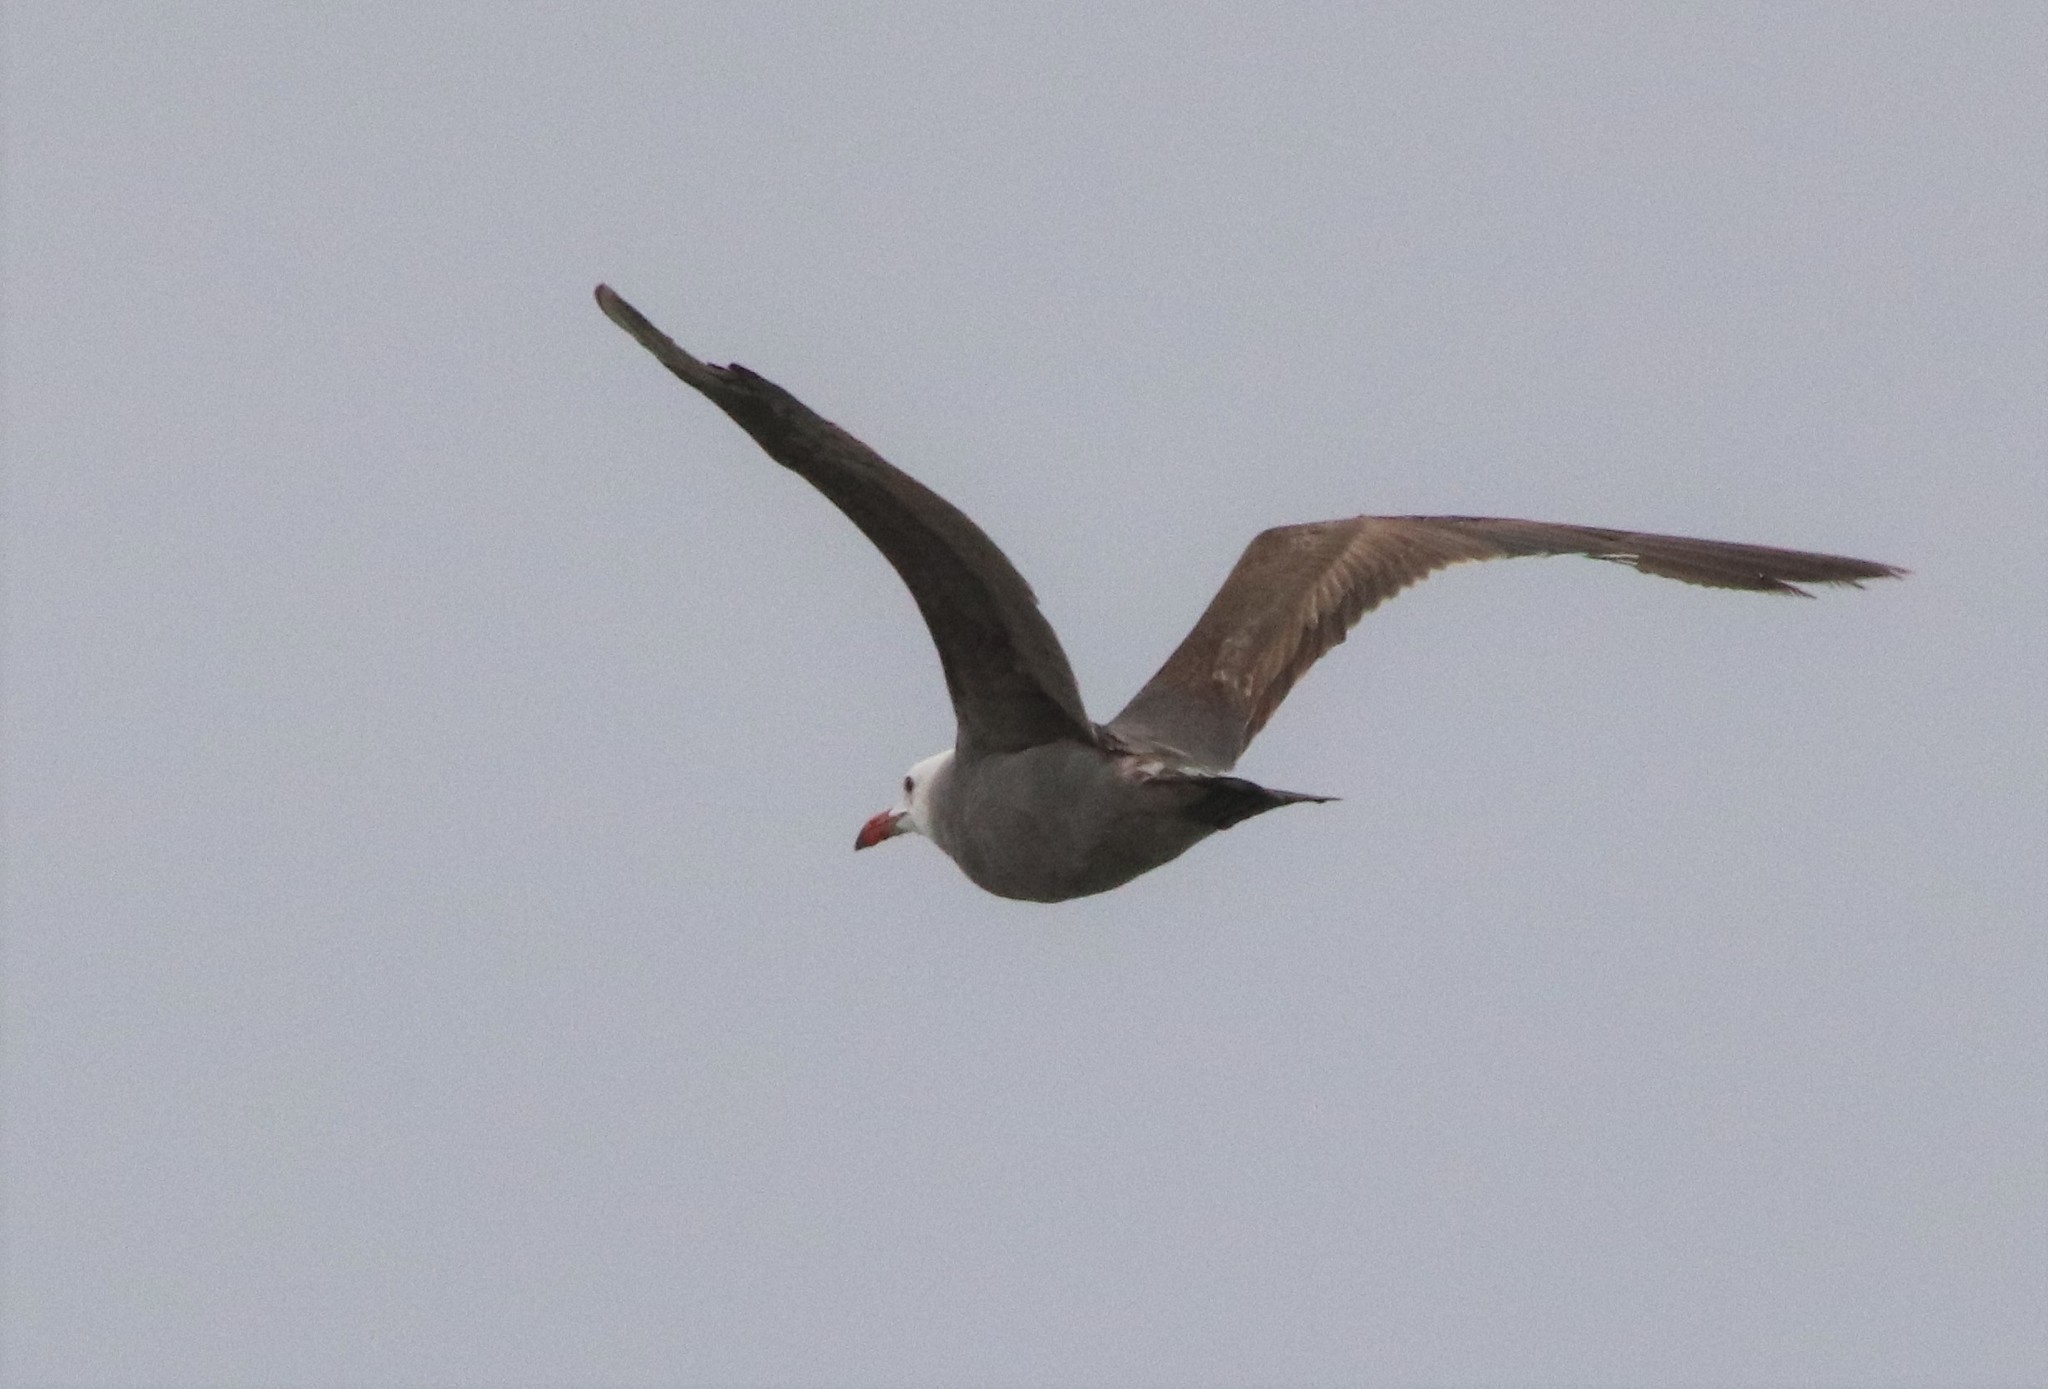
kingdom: Animalia
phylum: Chordata
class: Aves
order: Charadriiformes
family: Laridae
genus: Larus
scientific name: Larus heermanni
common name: Heermann's gull
